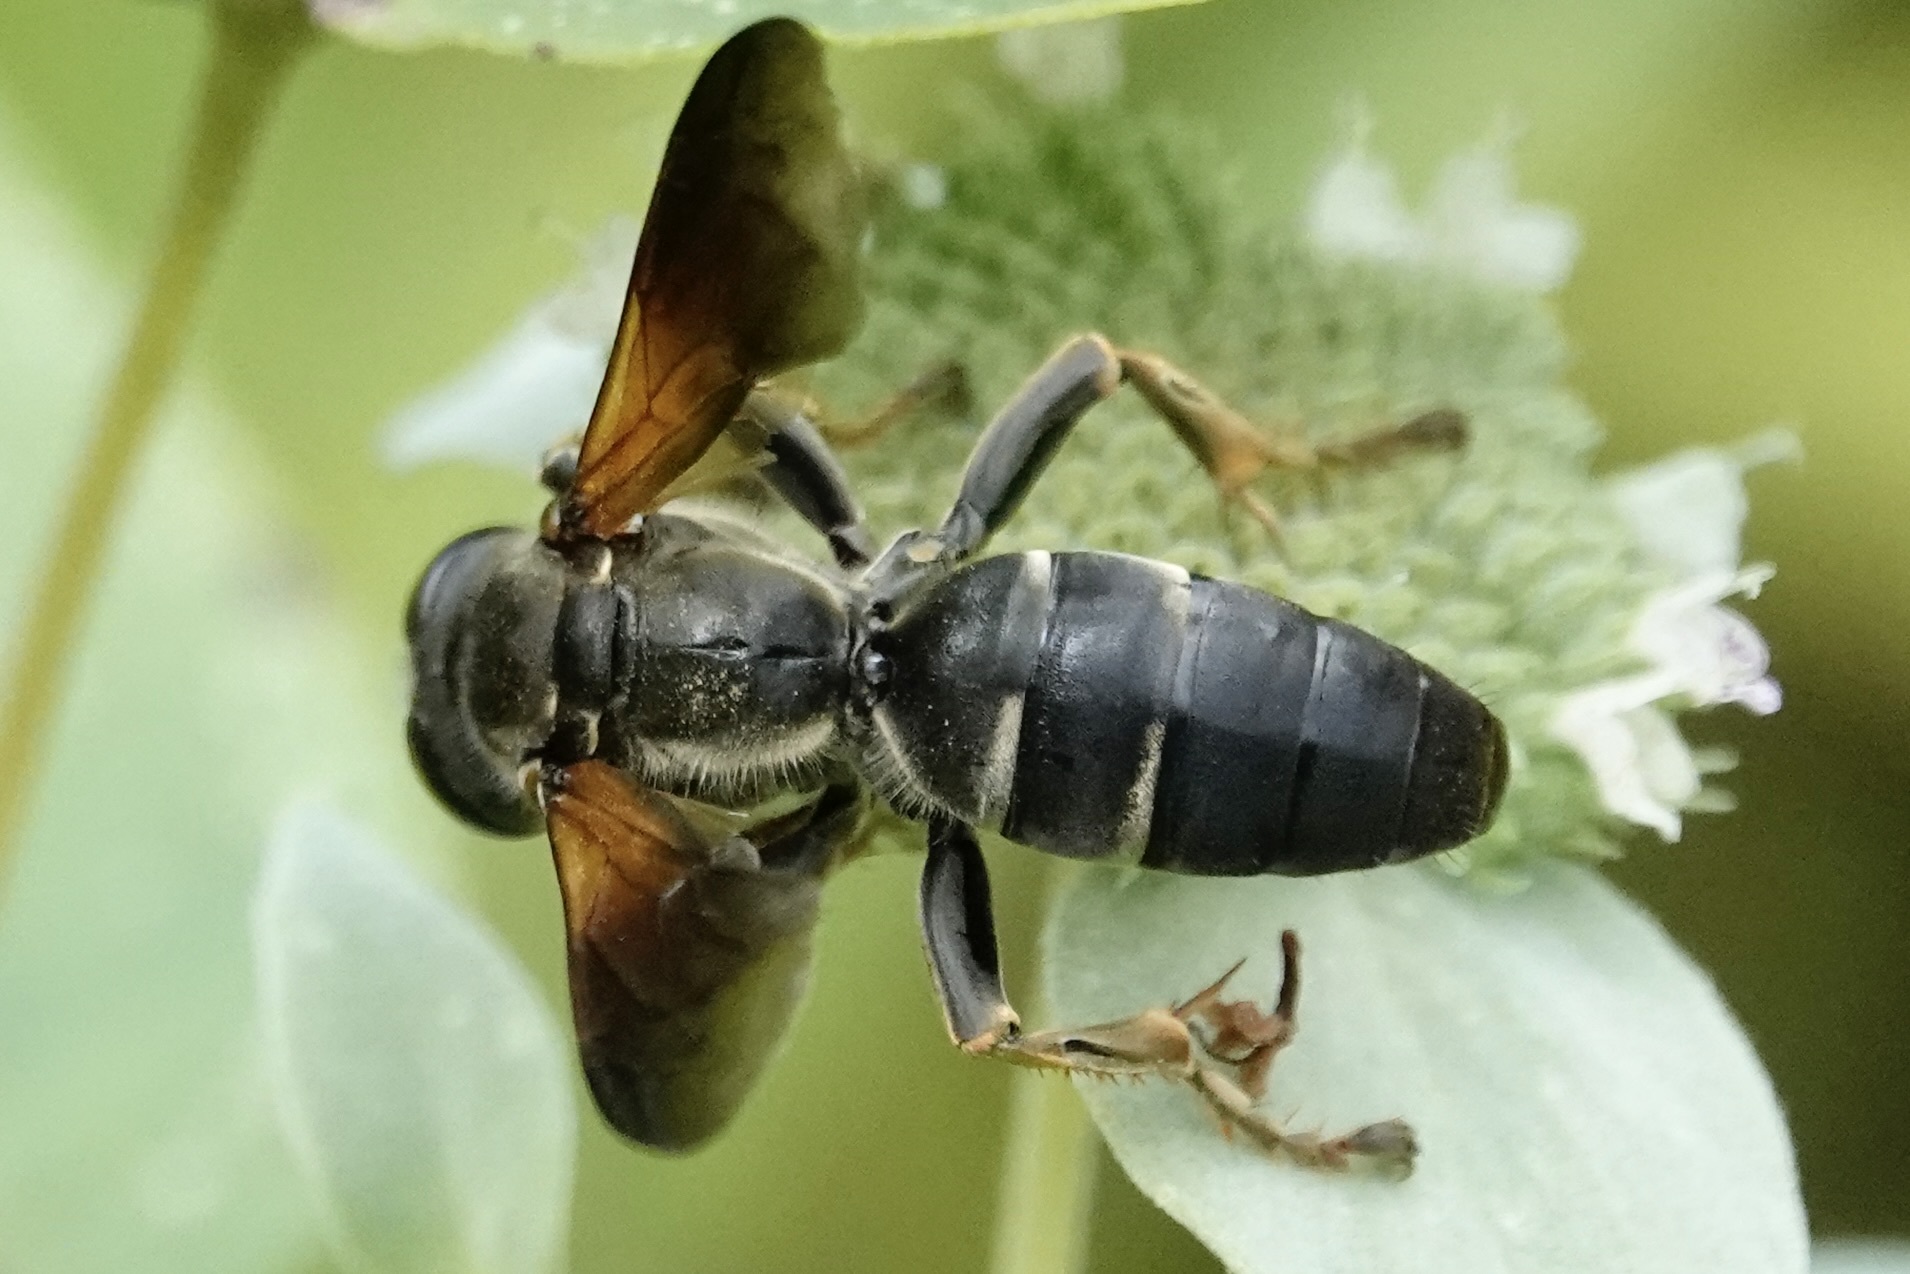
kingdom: Animalia
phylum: Arthropoda
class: Insecta
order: Hymenoptera
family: Crabronidae
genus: Tachytes
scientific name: Tachytes guatemalensis
